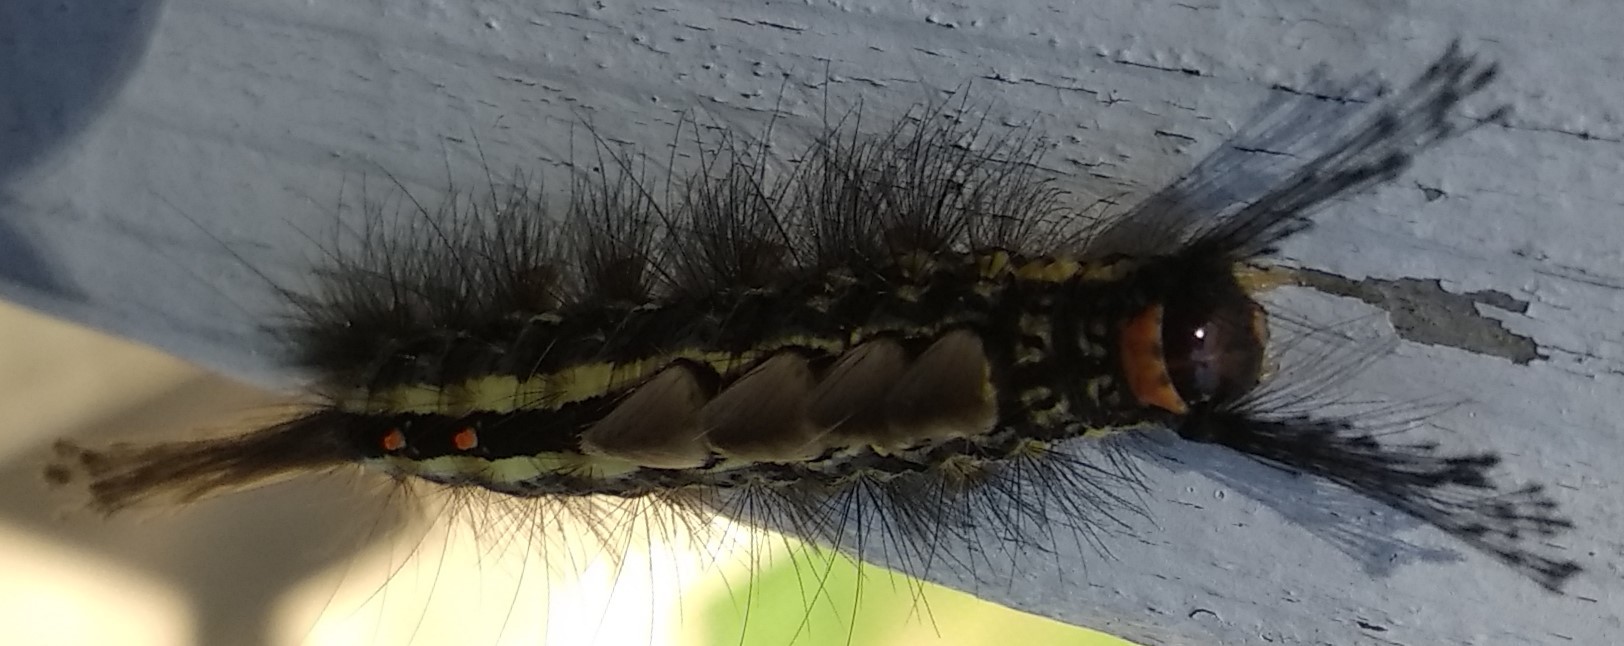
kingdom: Animalia
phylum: Arthropoda
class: Insecta
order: Lepidoptera
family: Erebidae
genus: Orgyia
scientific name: Orgyia leucostigma
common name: White-marked tussock moth
